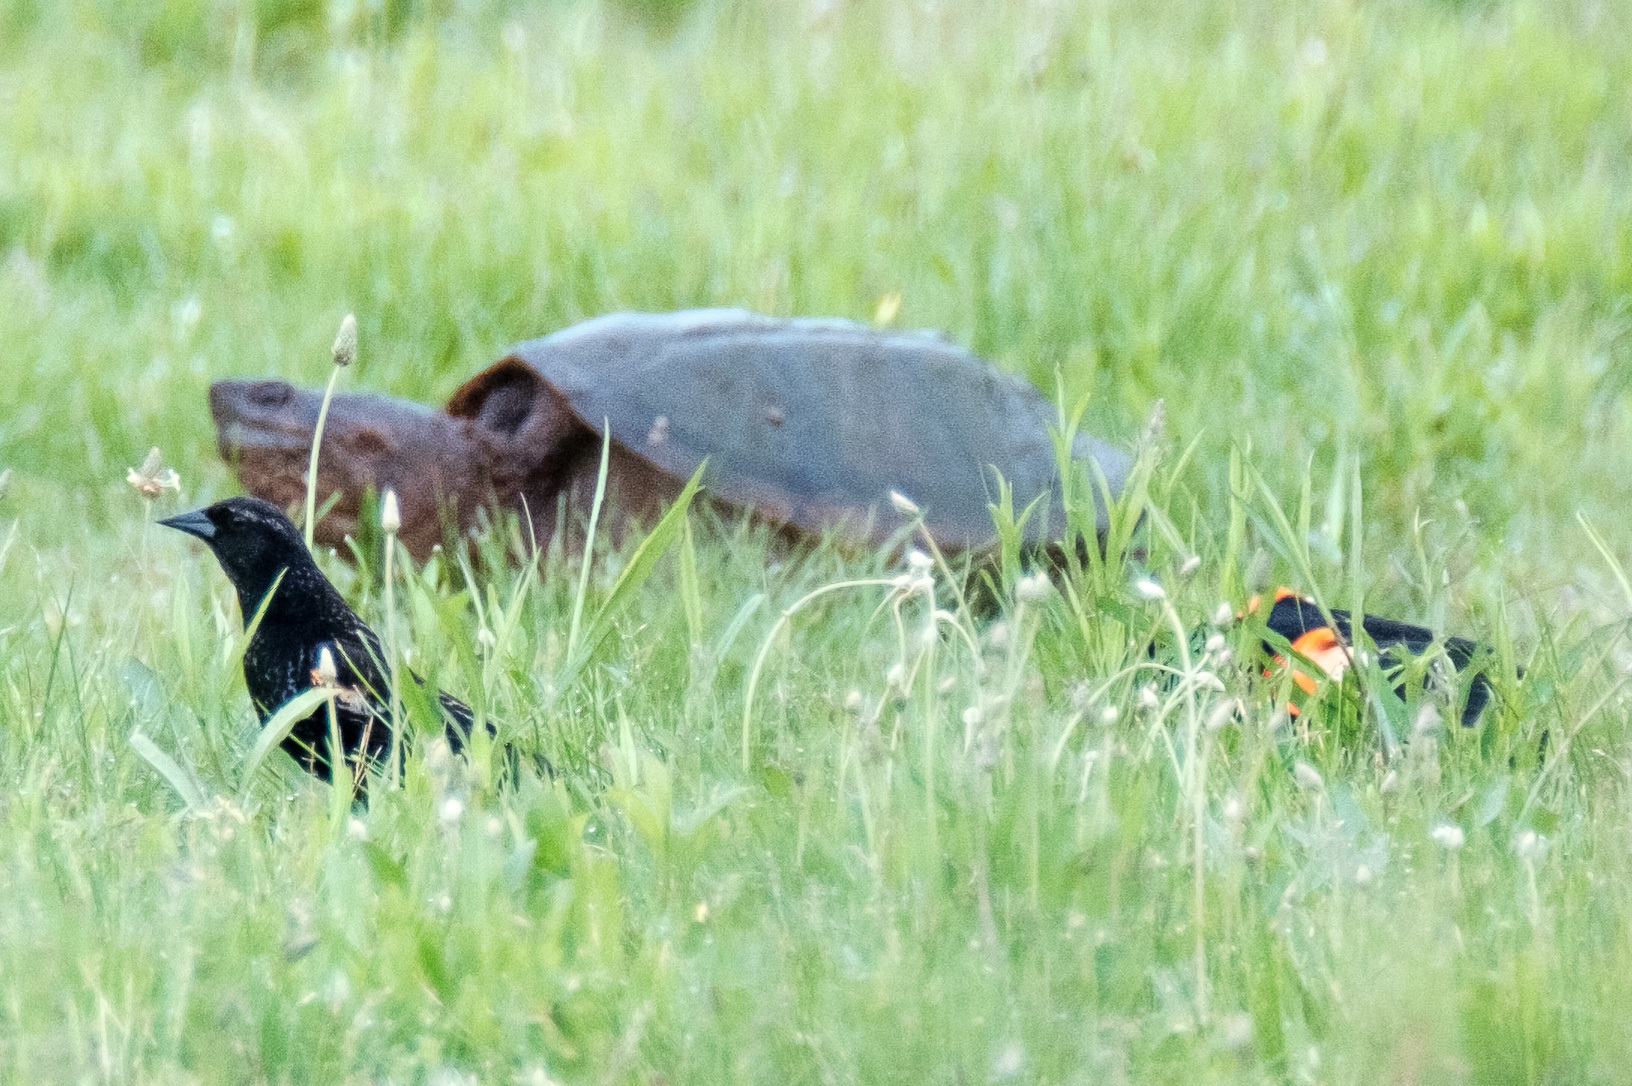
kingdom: Animalia
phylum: Chordata
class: Aves
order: Passeriformes
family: Icteridae
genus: Agelaius
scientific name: Agelaius phoeniceus
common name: Red-winged blackbird
